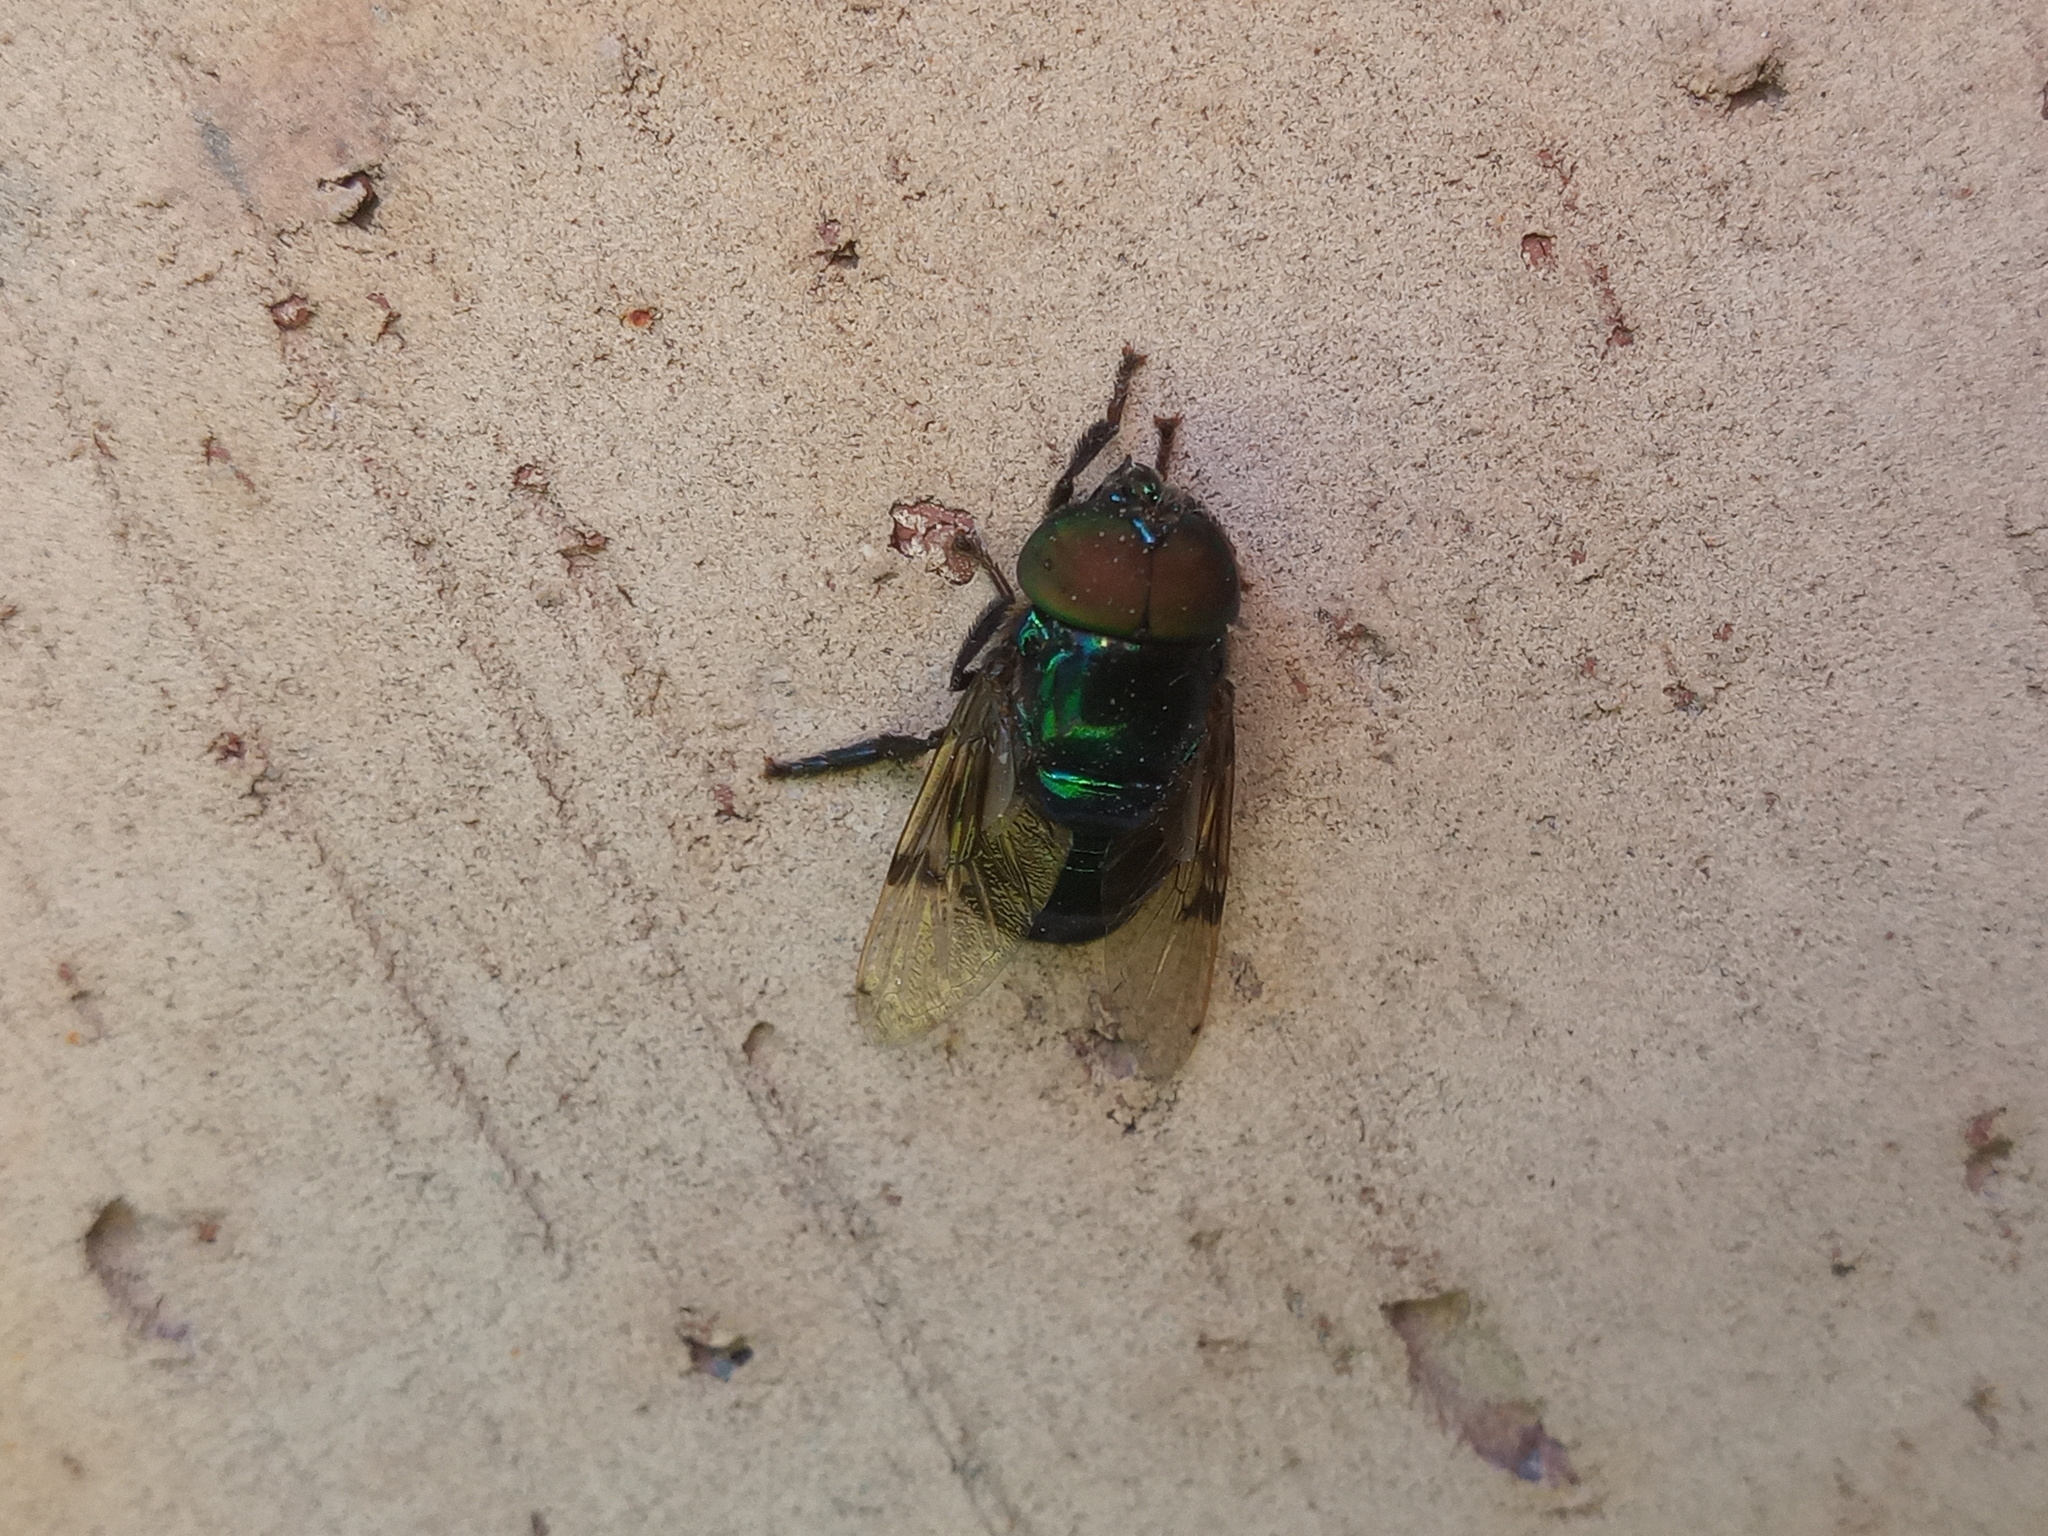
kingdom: Animalia
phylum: Arthropoda
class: Insecta
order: Diptera
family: Syrphidae
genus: Ornidia
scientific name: Ornidia obesa
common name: Syrphid fly
